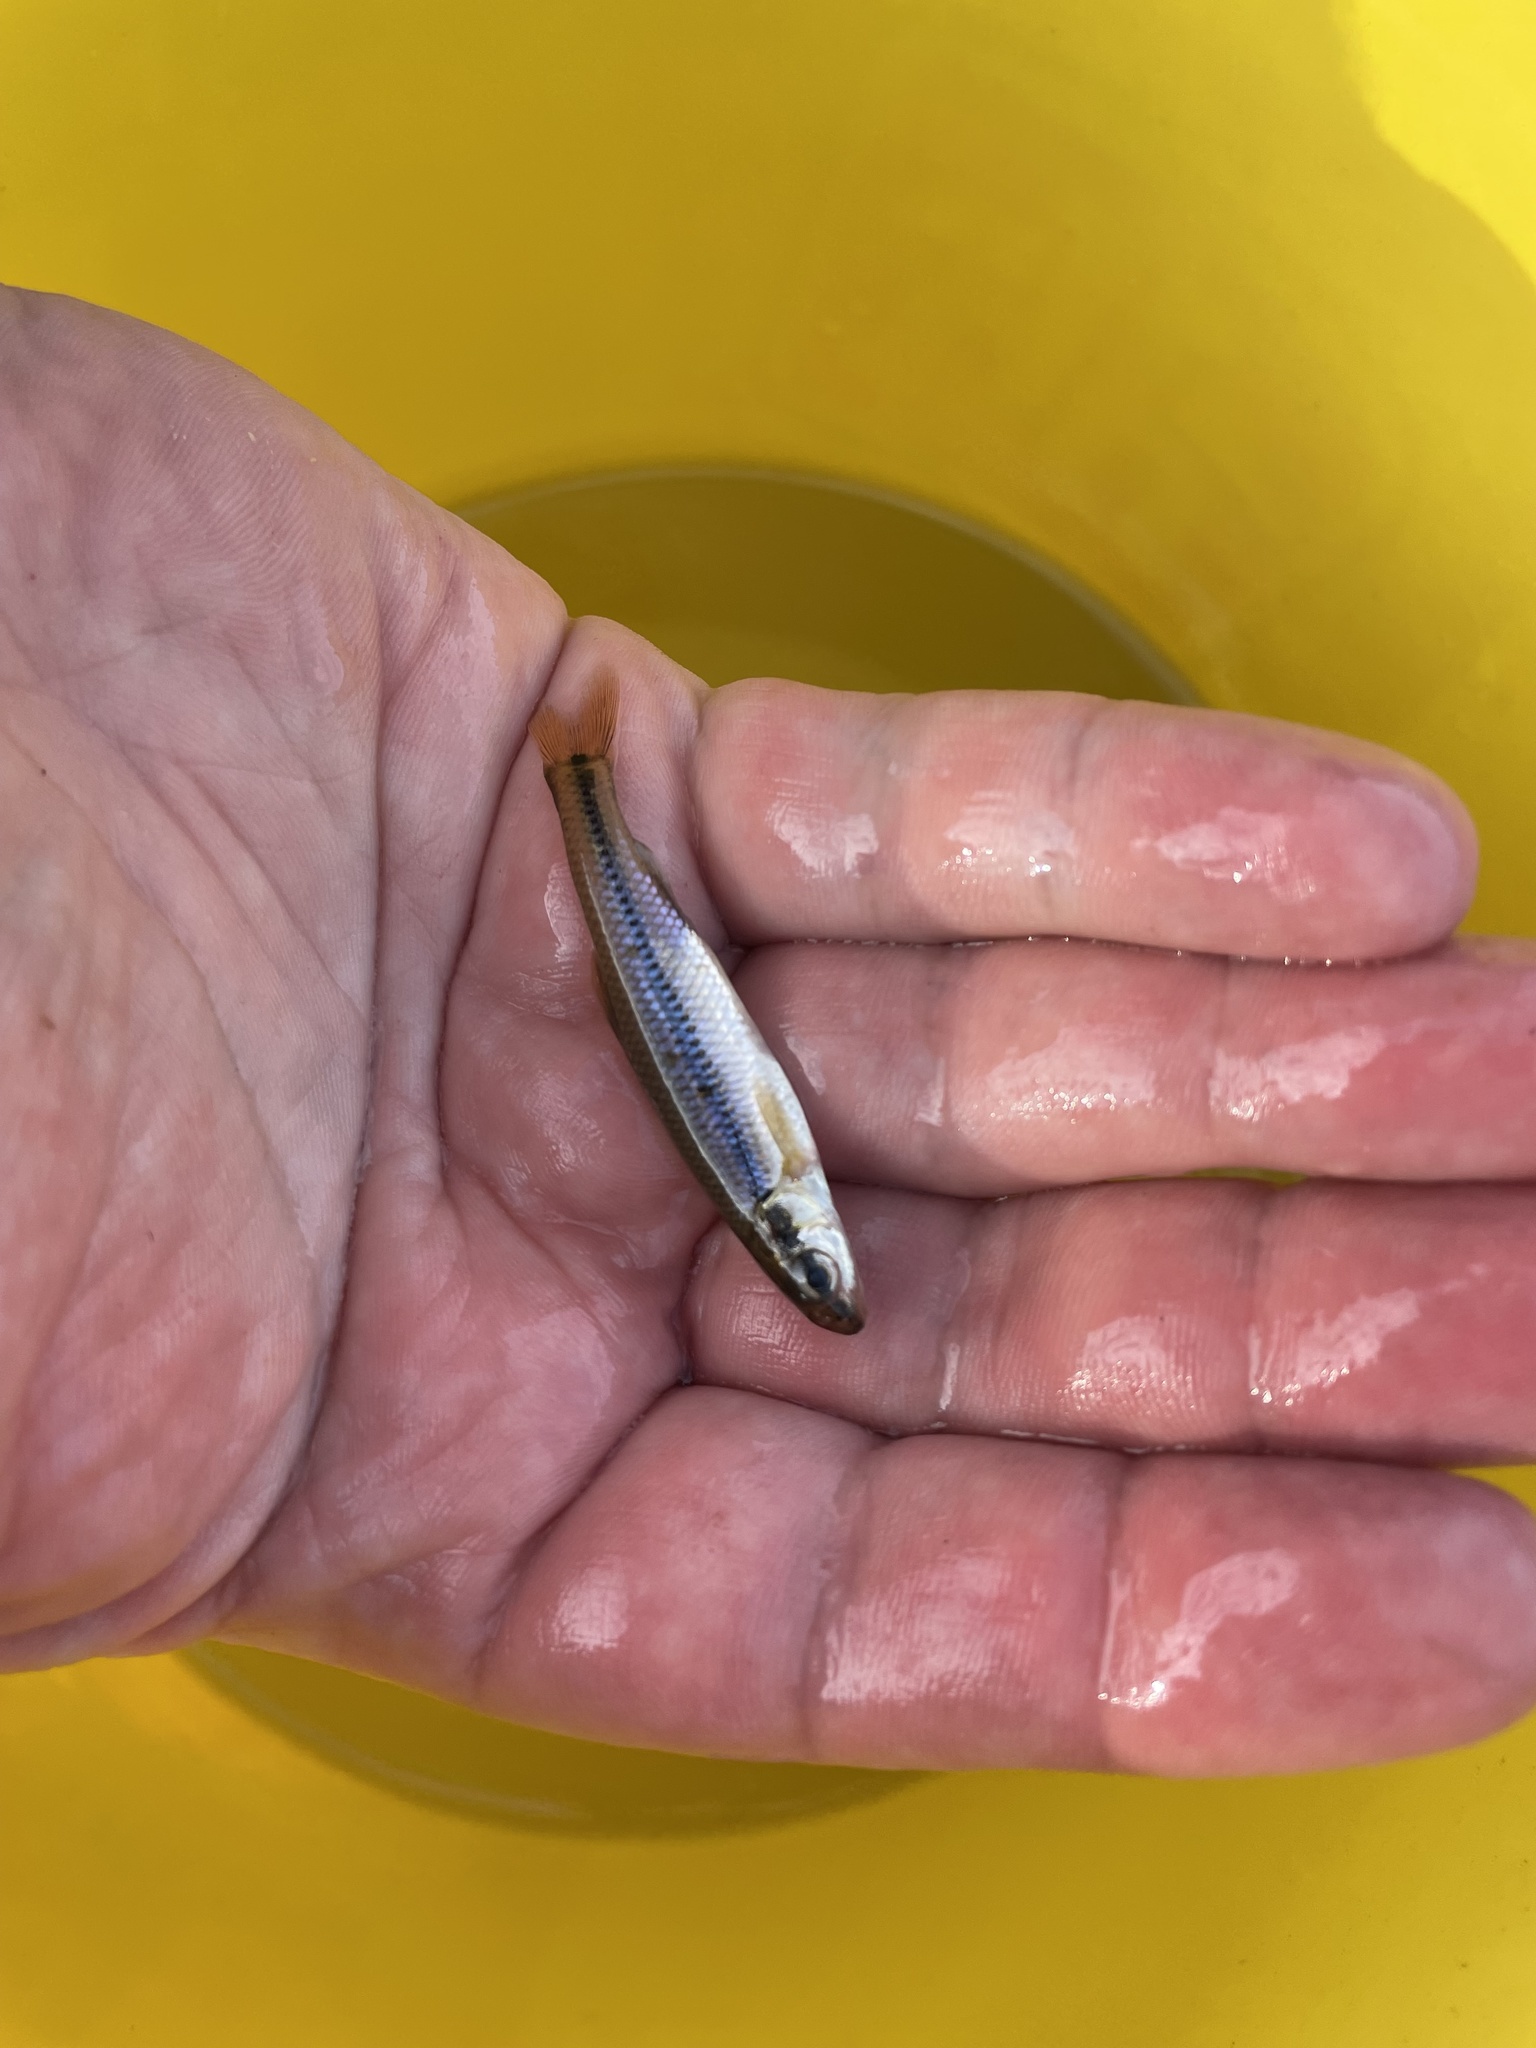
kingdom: Animalia
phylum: Chordata
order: Cypriniformes
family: Cyprinidae
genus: Pimephales
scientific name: Pimephales notatus
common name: Bluntnose minnow
